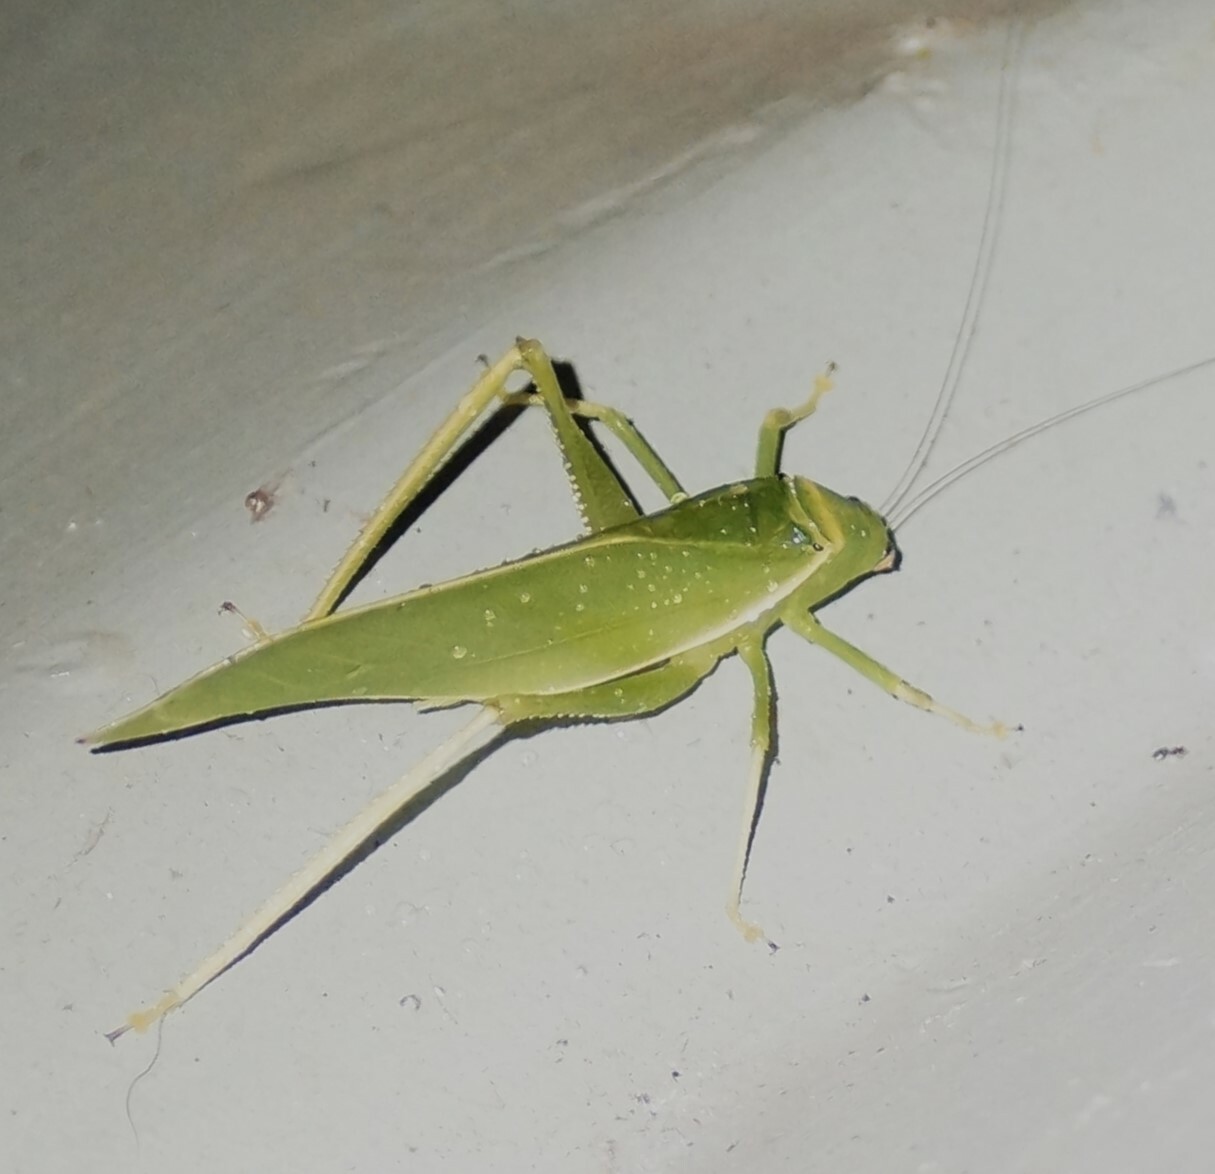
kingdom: Animalia
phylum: Arthropoda
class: Insecta
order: Orthoptera
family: Tettigoniidae
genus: Paracaedicia
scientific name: Paracaedicia serrata
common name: Serrated bush katydid
